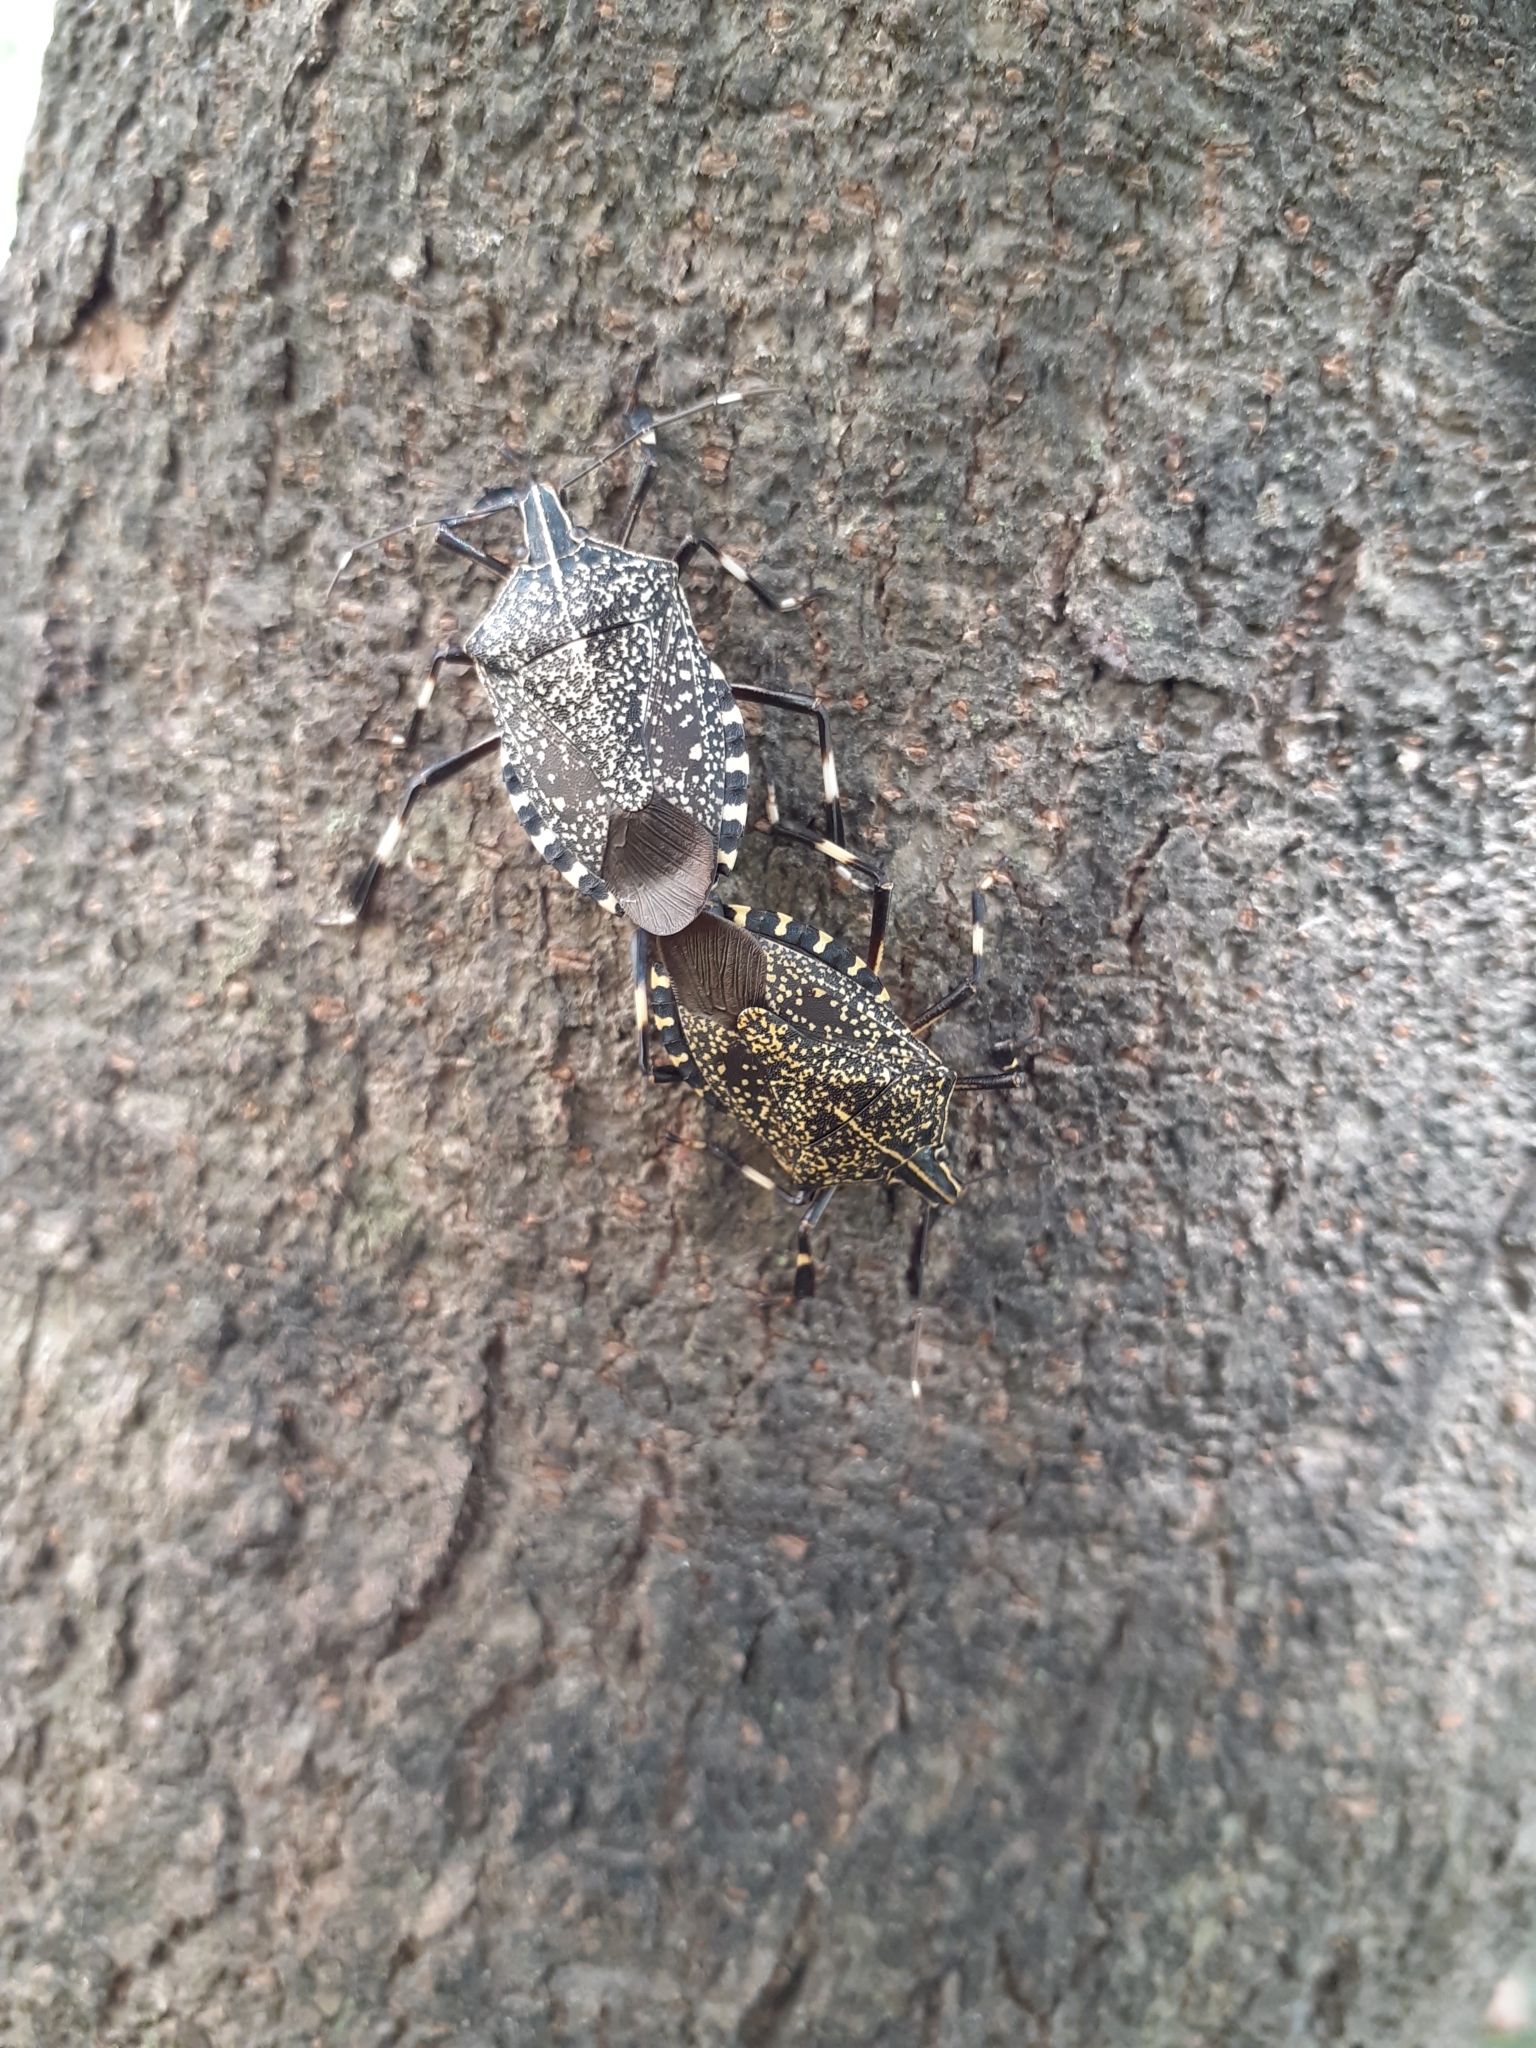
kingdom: Animalia
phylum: Arthropoda
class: Insecta
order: Hemiptera
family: Pentatomidae
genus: Erthesina
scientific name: Erthesina fullo
